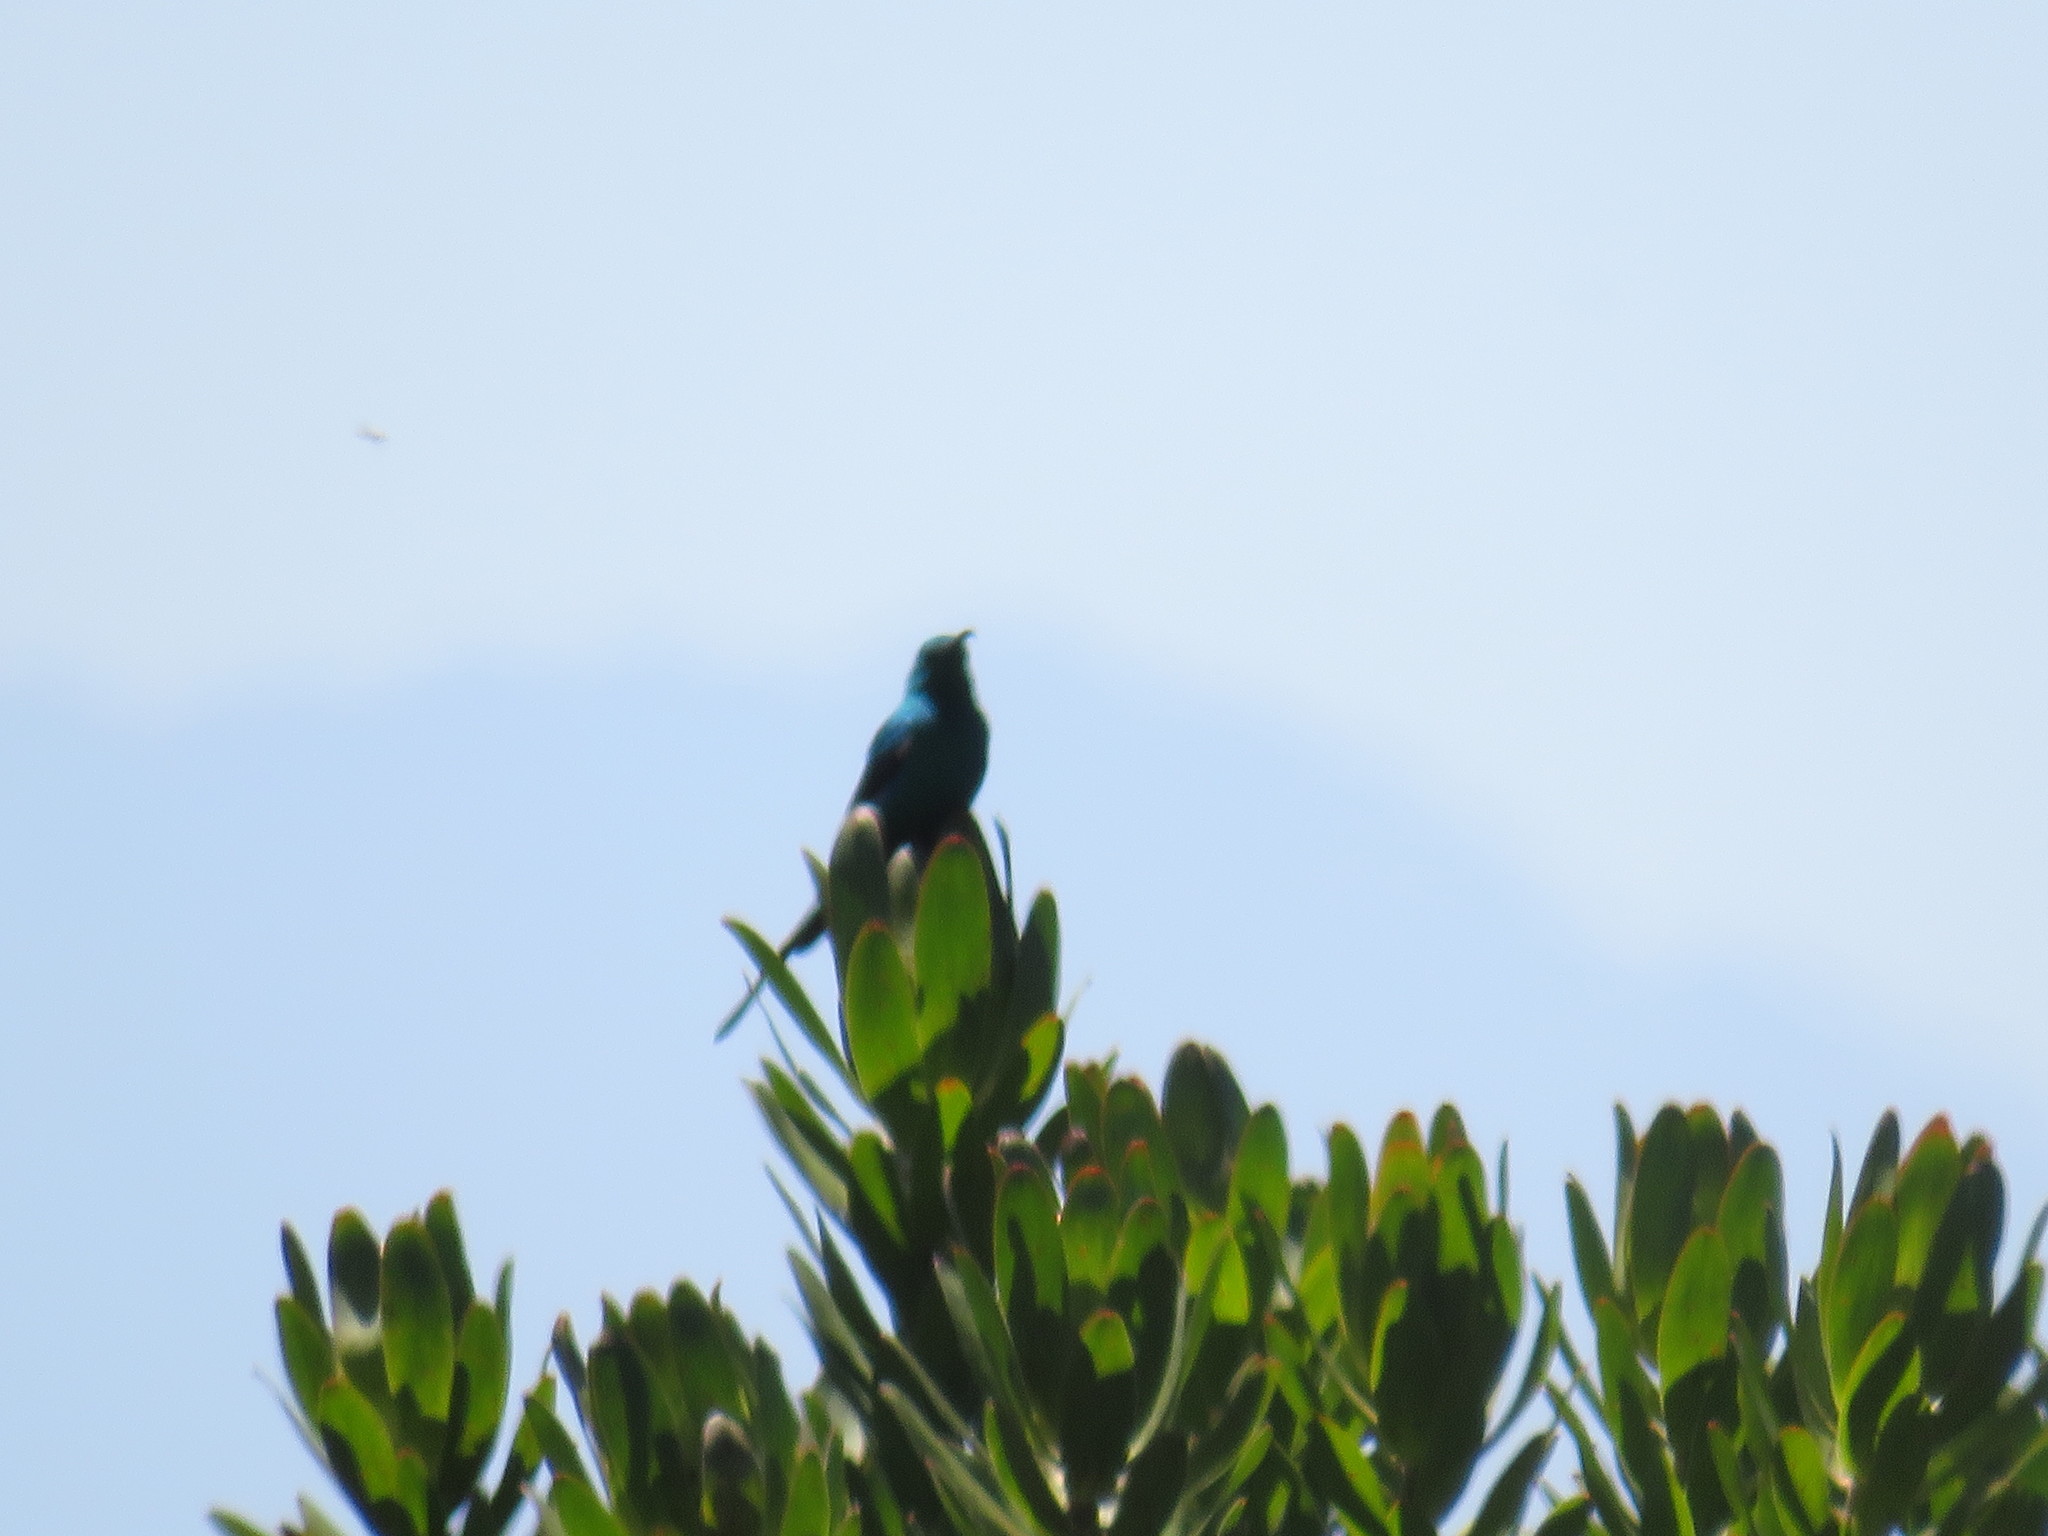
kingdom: Animalia
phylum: Chordata
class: Aves
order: Passeriformes
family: Nectariniidae
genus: Nectarinia
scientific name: Nectarinia famosa
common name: Malachite sunbird
